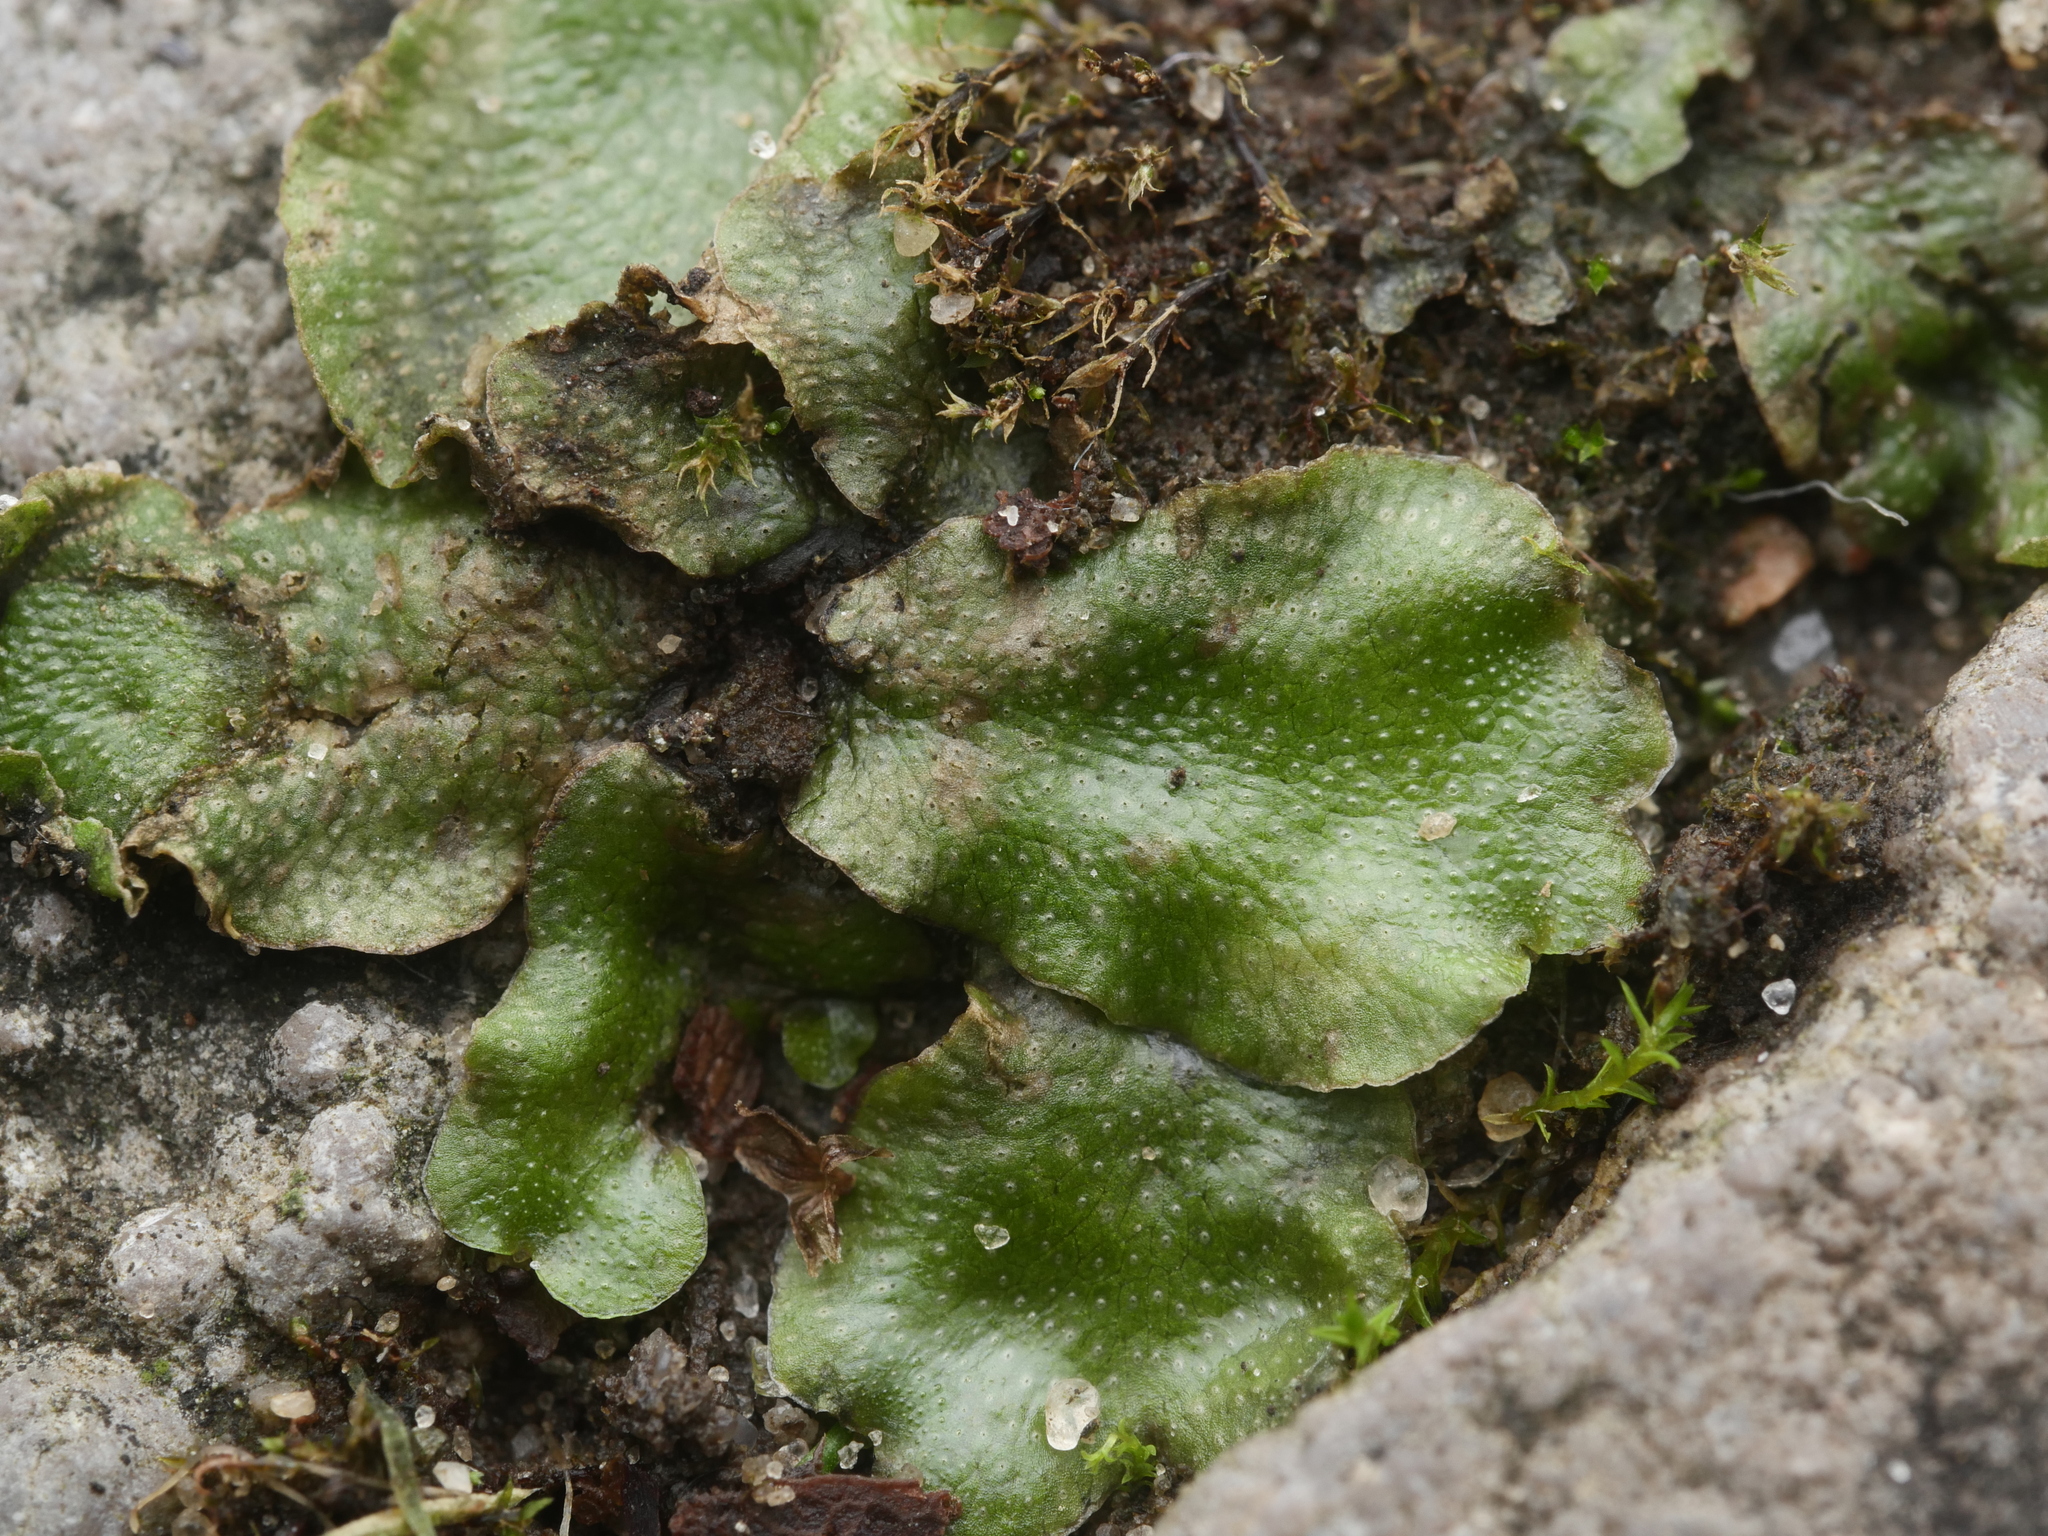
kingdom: Plantae
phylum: Marchantiophyta
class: Marchantiopsida
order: Lunulariales
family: Lunulariaceae
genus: Lunularia
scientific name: Lunularia cruciata
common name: Crescent-cup liverwort
